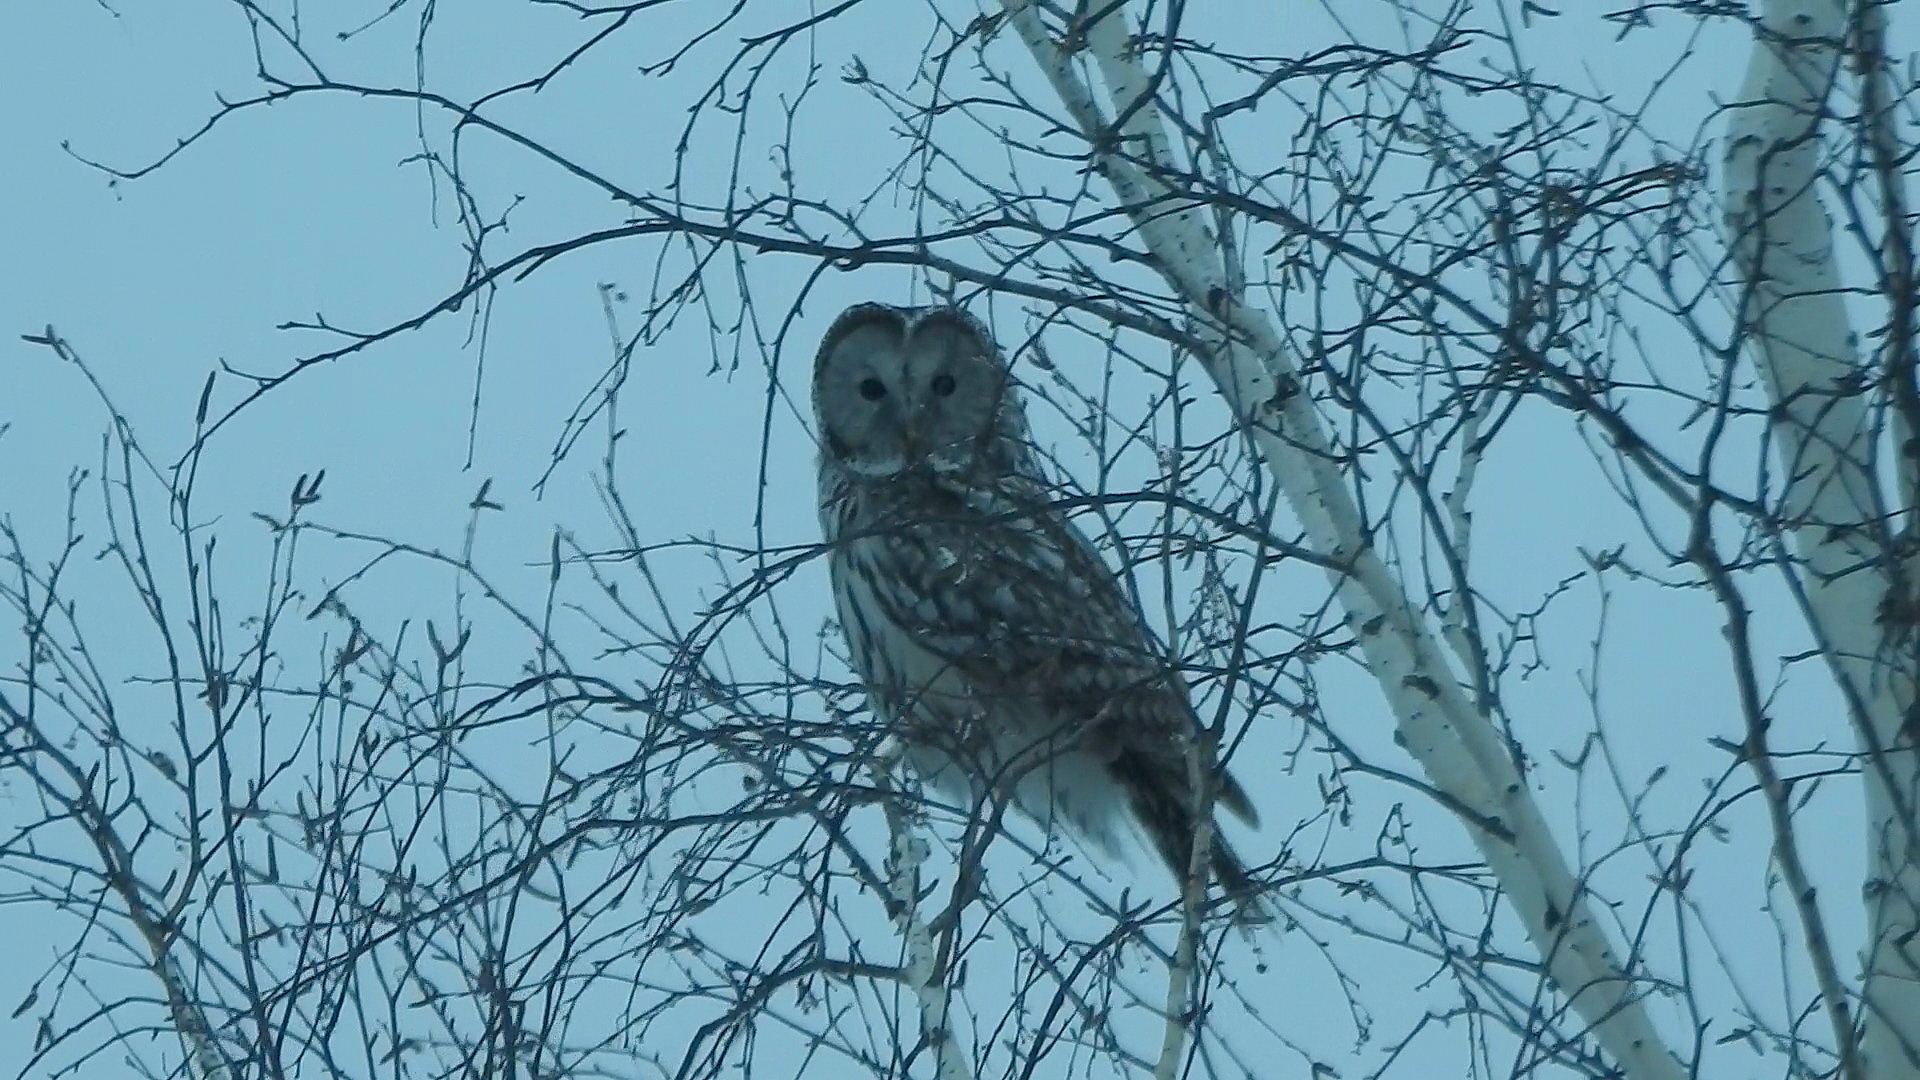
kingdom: Animalia
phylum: Chordata
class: Aves
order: Strigiformes
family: Strigidae
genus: Strix
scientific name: Strix uralensis
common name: Ural owl
